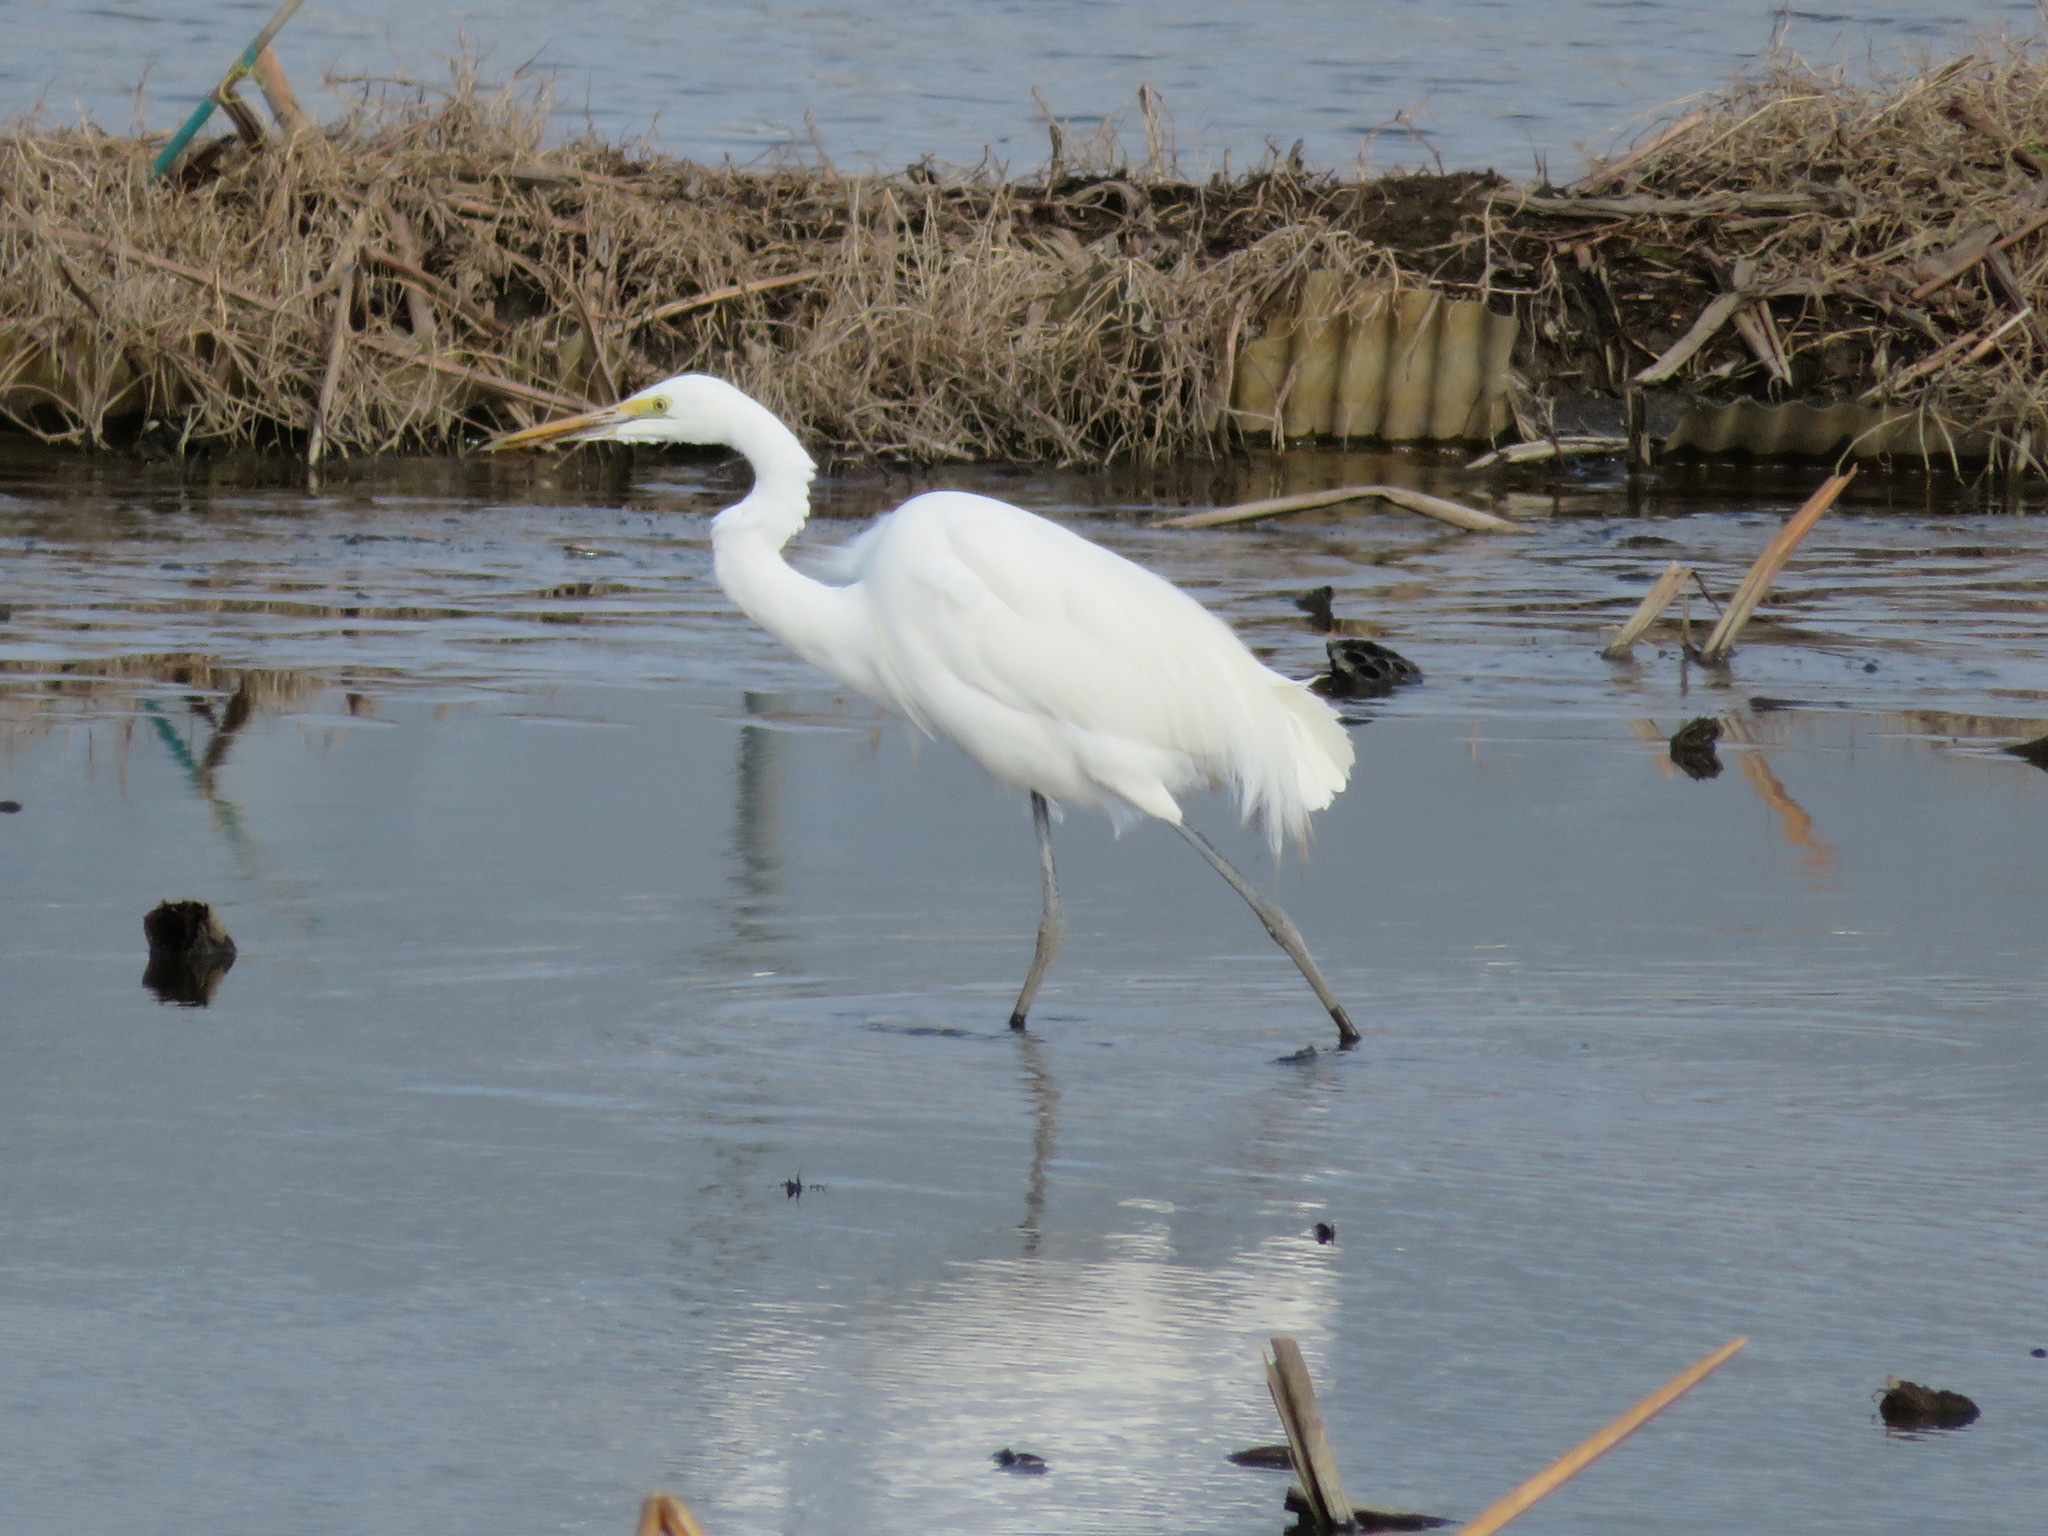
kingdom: Animalia
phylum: Chordata
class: Aves
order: Pelecaniformes
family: Ardeidae
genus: Ardea
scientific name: Ardea modesta
